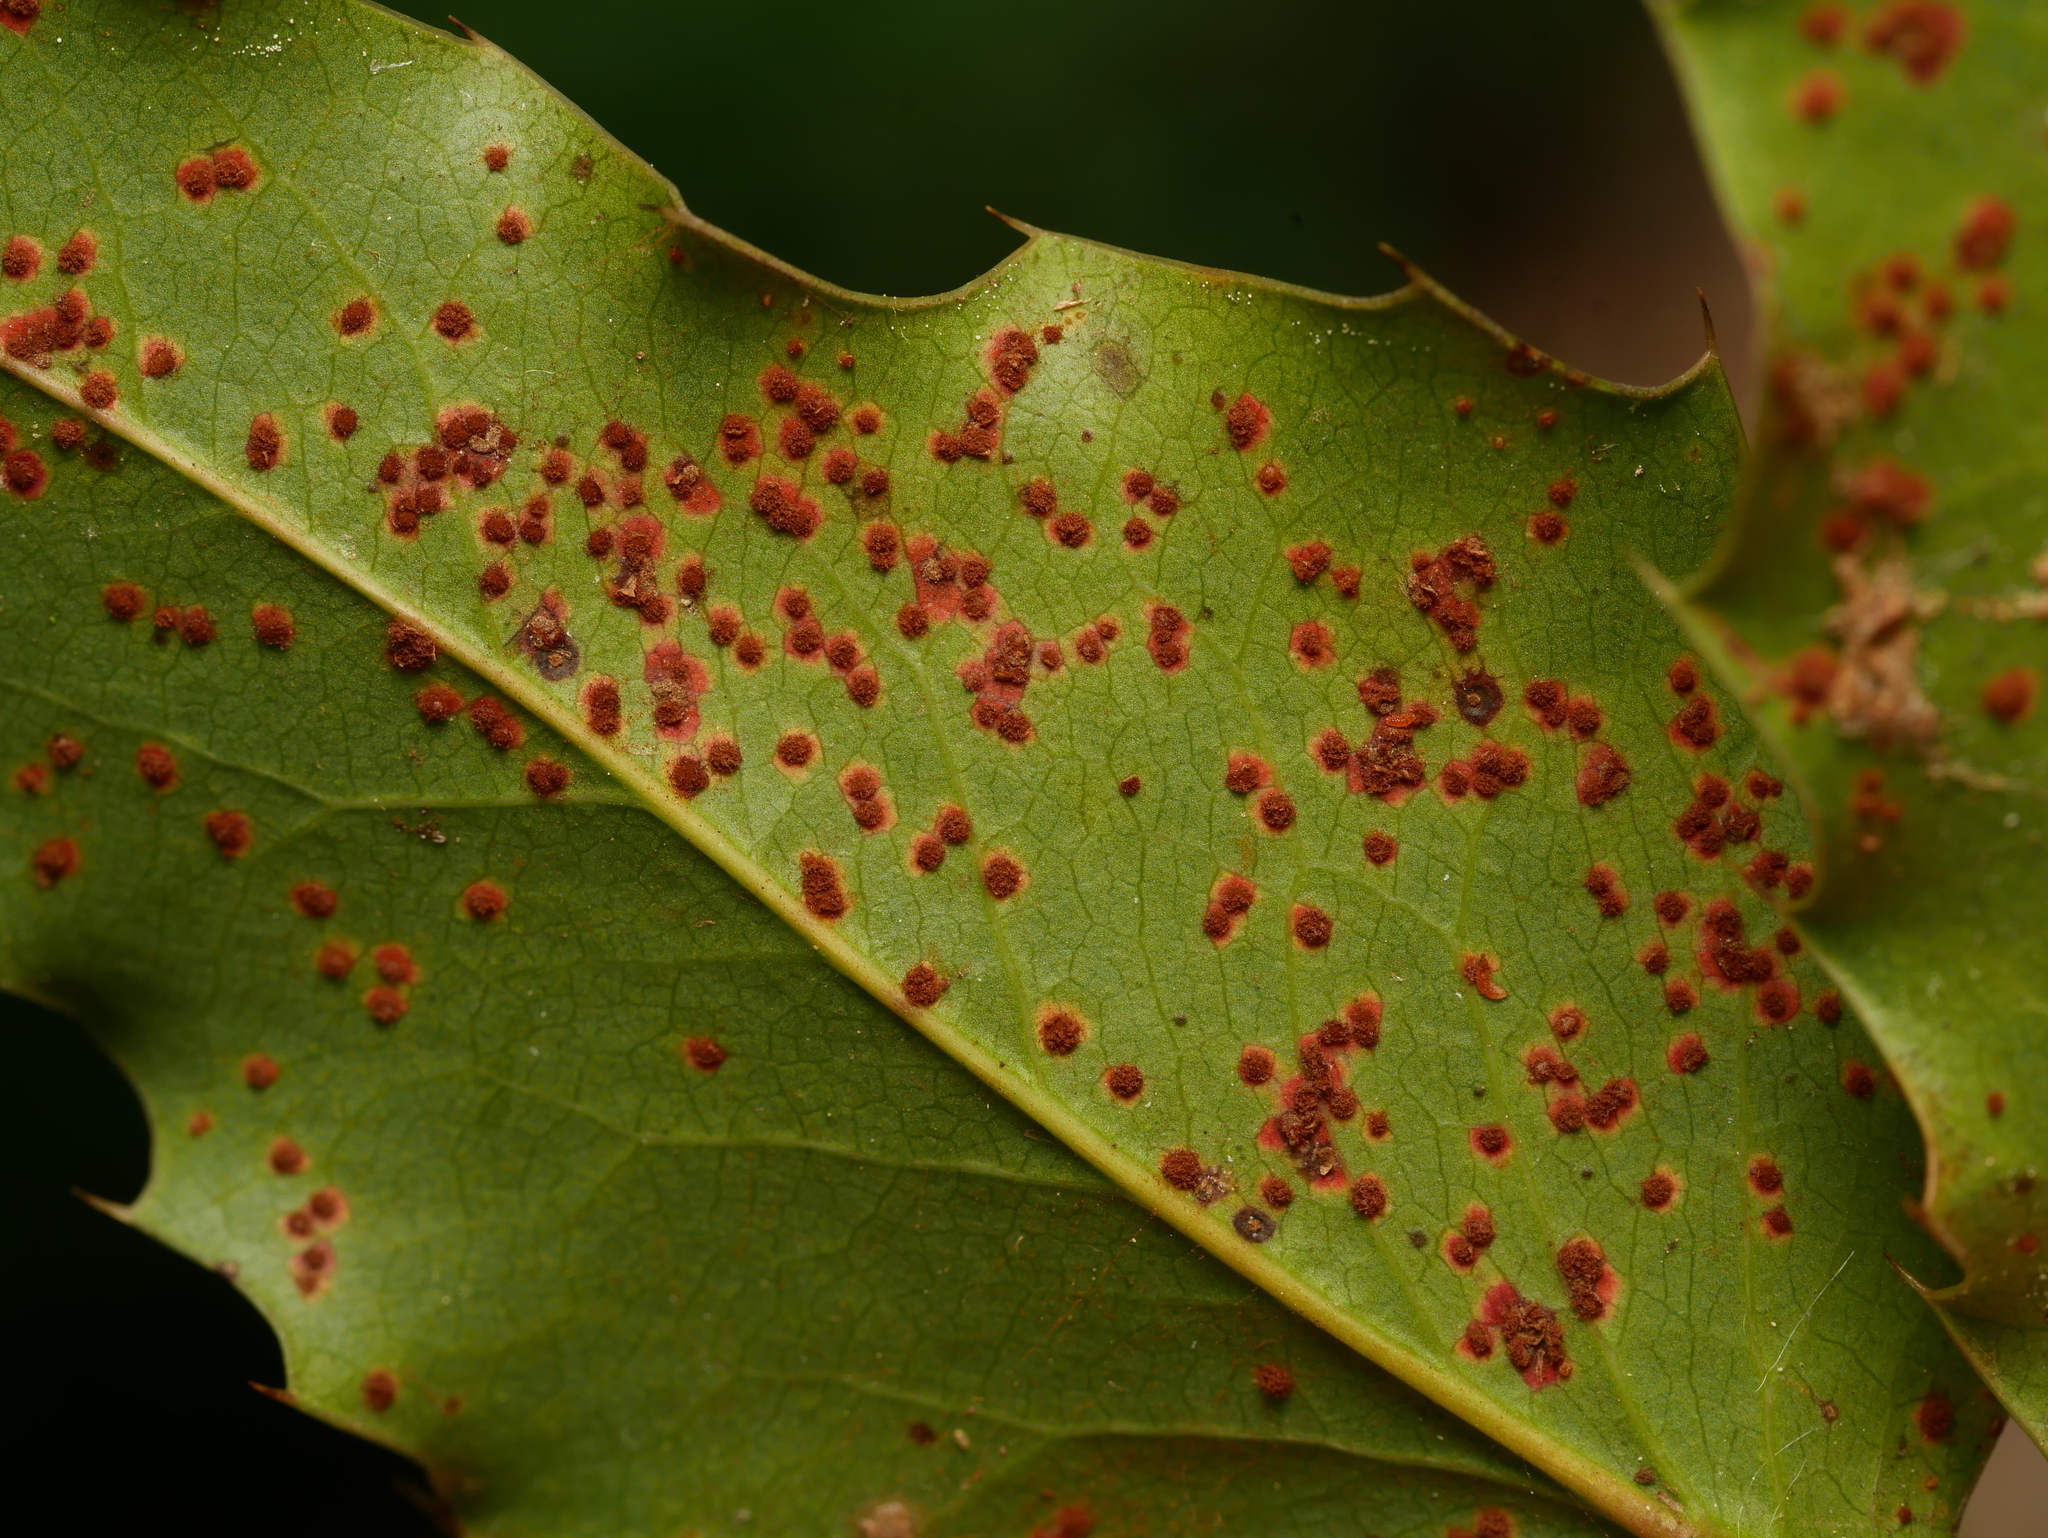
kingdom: Fungi
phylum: Basidiomycota
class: Pucciniomycetes
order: Pucciniales
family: Pucciniaceae
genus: Cumminsiella
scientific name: Cumminsiella mirabilissima
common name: Mahonia rust
